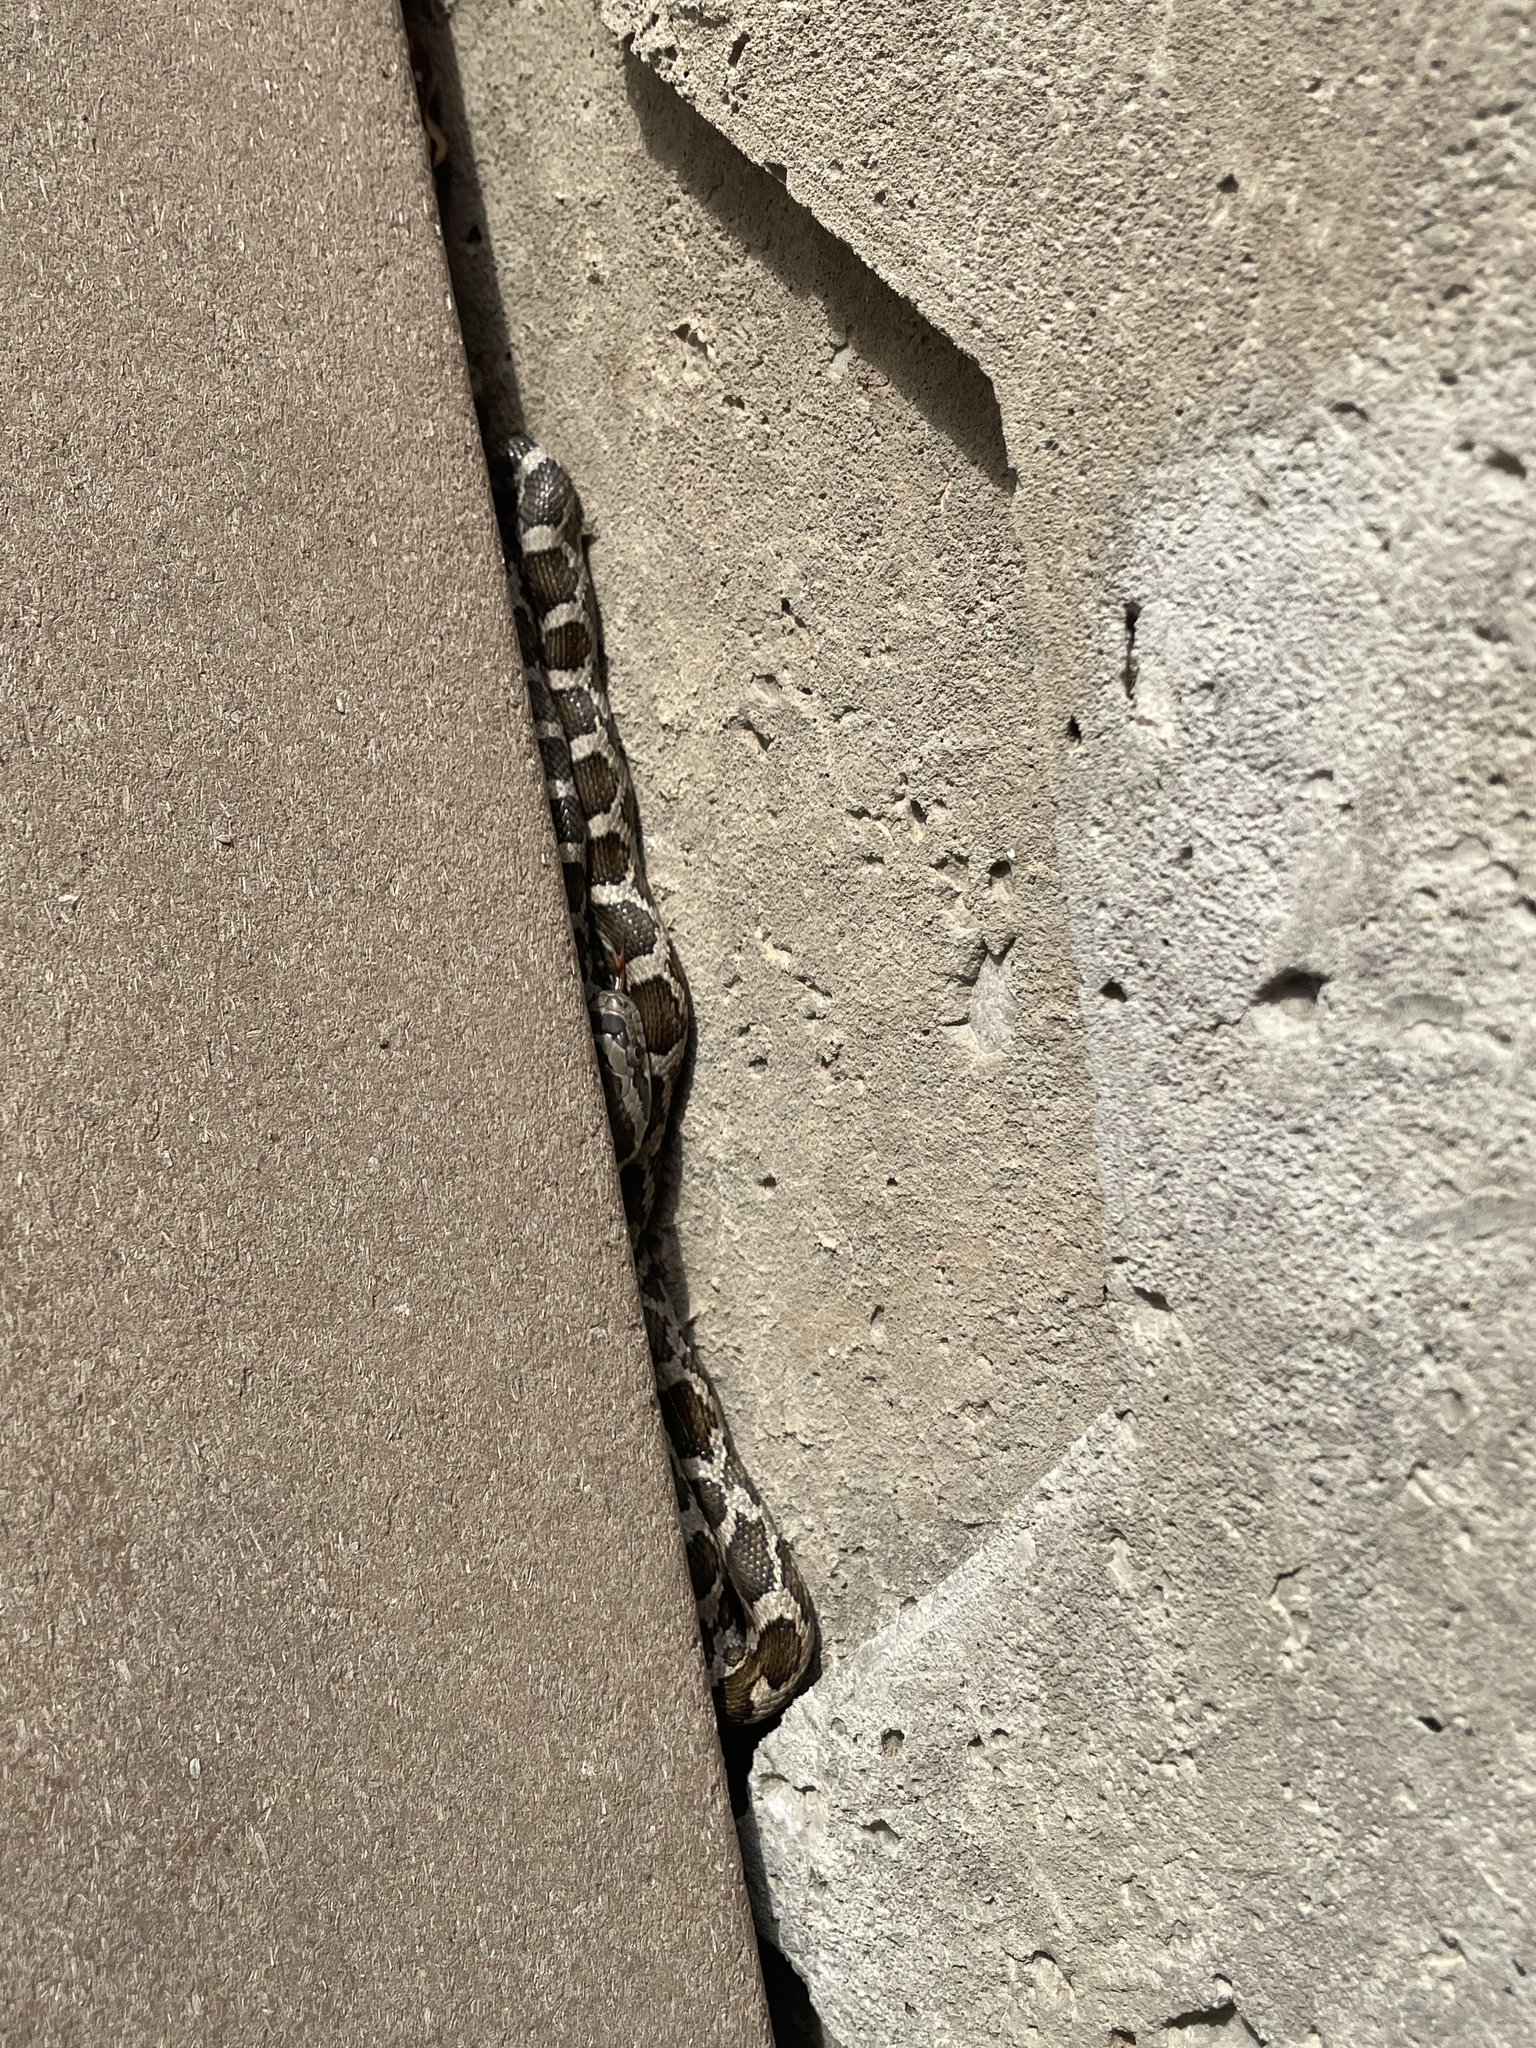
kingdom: Animalia
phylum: Chordata
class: Squamata
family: Colubridae
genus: Pantherophis
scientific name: Pantherophis obsoletus
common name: Black rat snake
